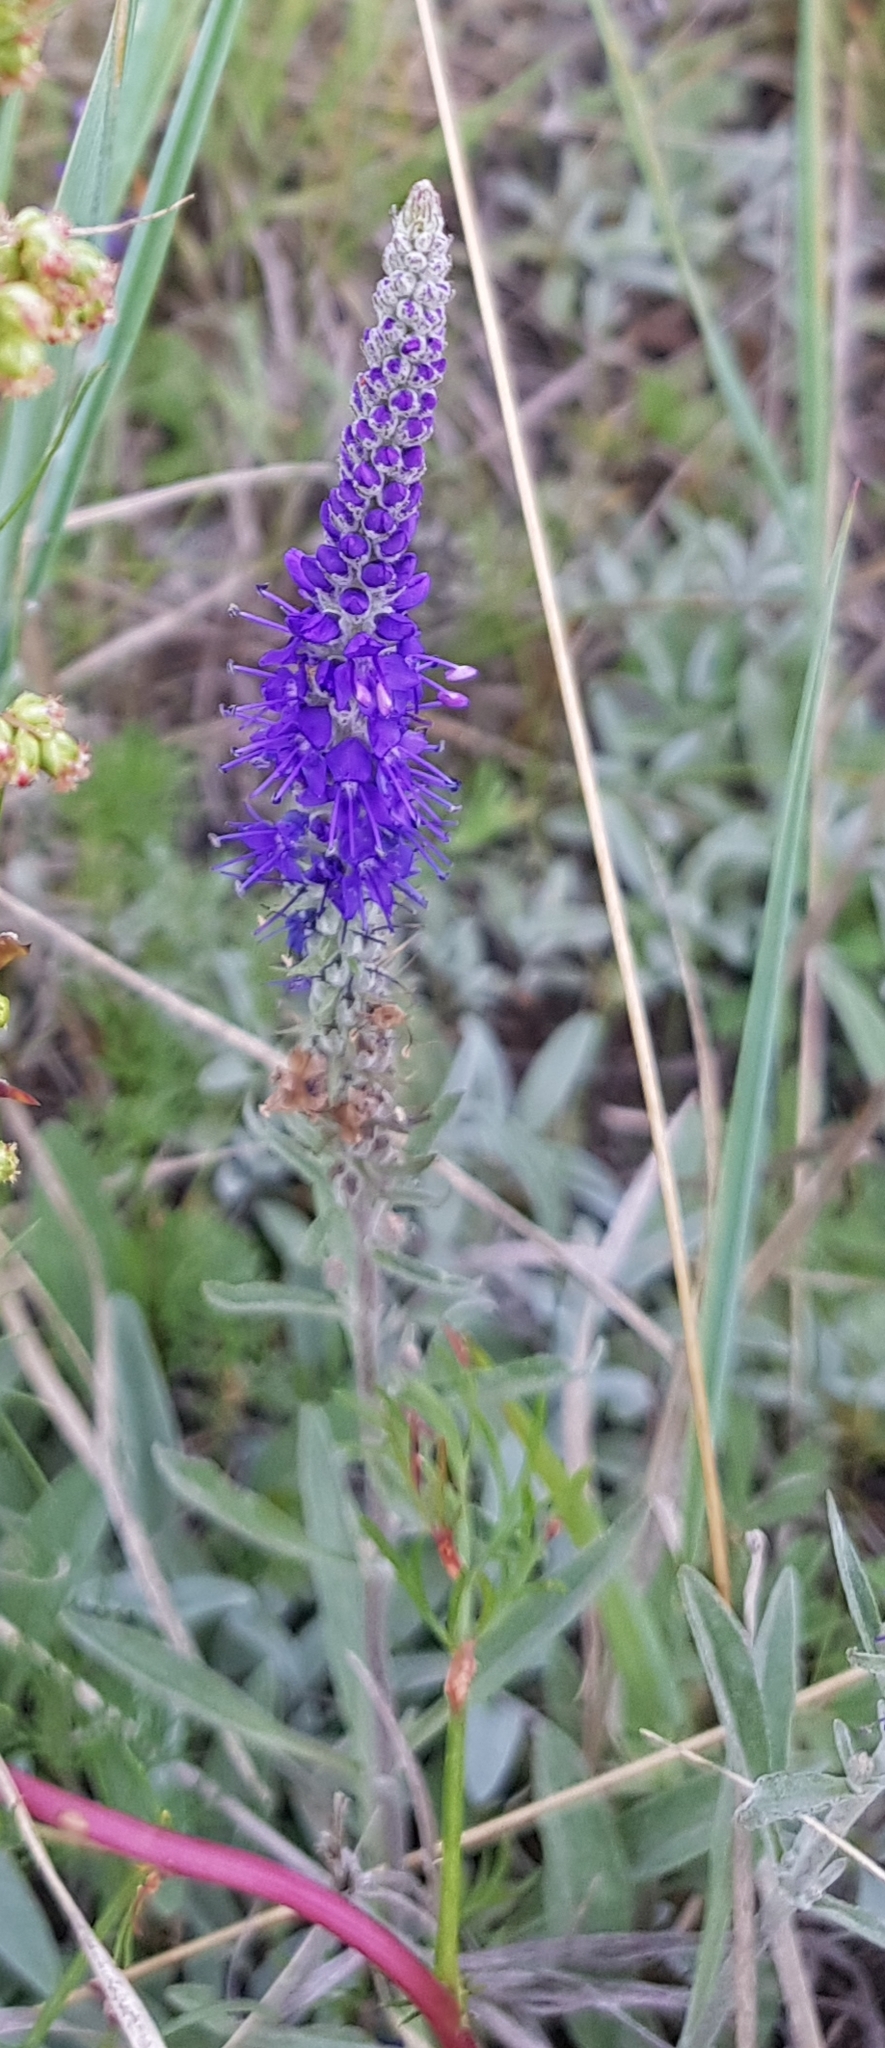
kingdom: Plantae
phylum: Tracheophyta
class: Magnoliopsida
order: Lamiales
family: Plantaginaceae
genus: Veronica
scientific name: Veronica incana
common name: Silver speedwell
